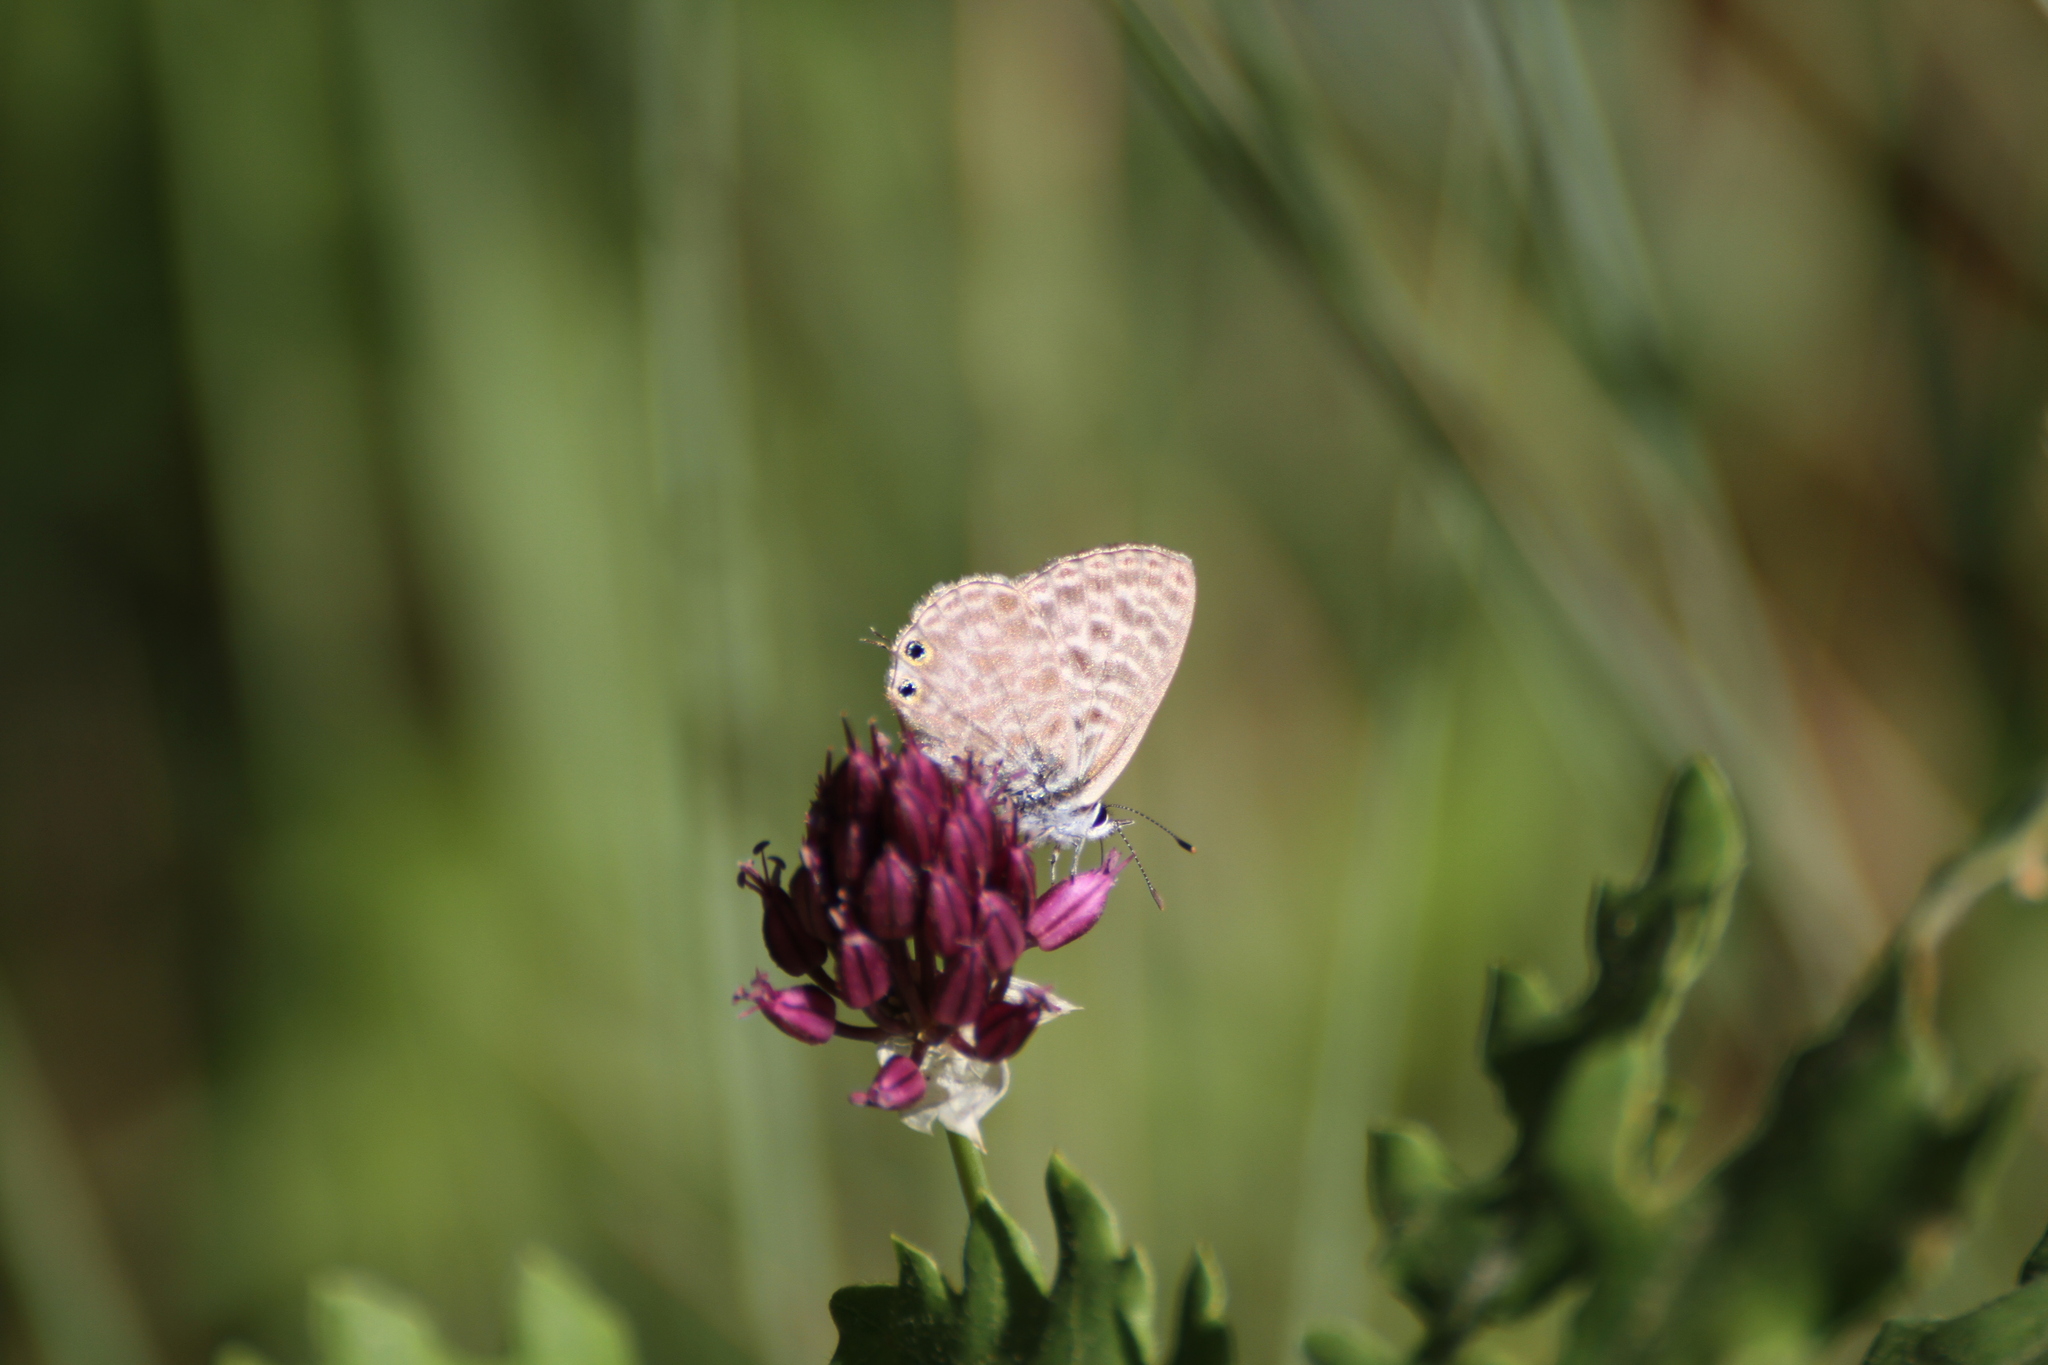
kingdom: Animalia
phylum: Arthropoda
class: Insecta
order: Lepidoptera
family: Lycaenidae
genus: Leptotes
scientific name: Leptotes pirithous
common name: Lang's short-tailed blue
